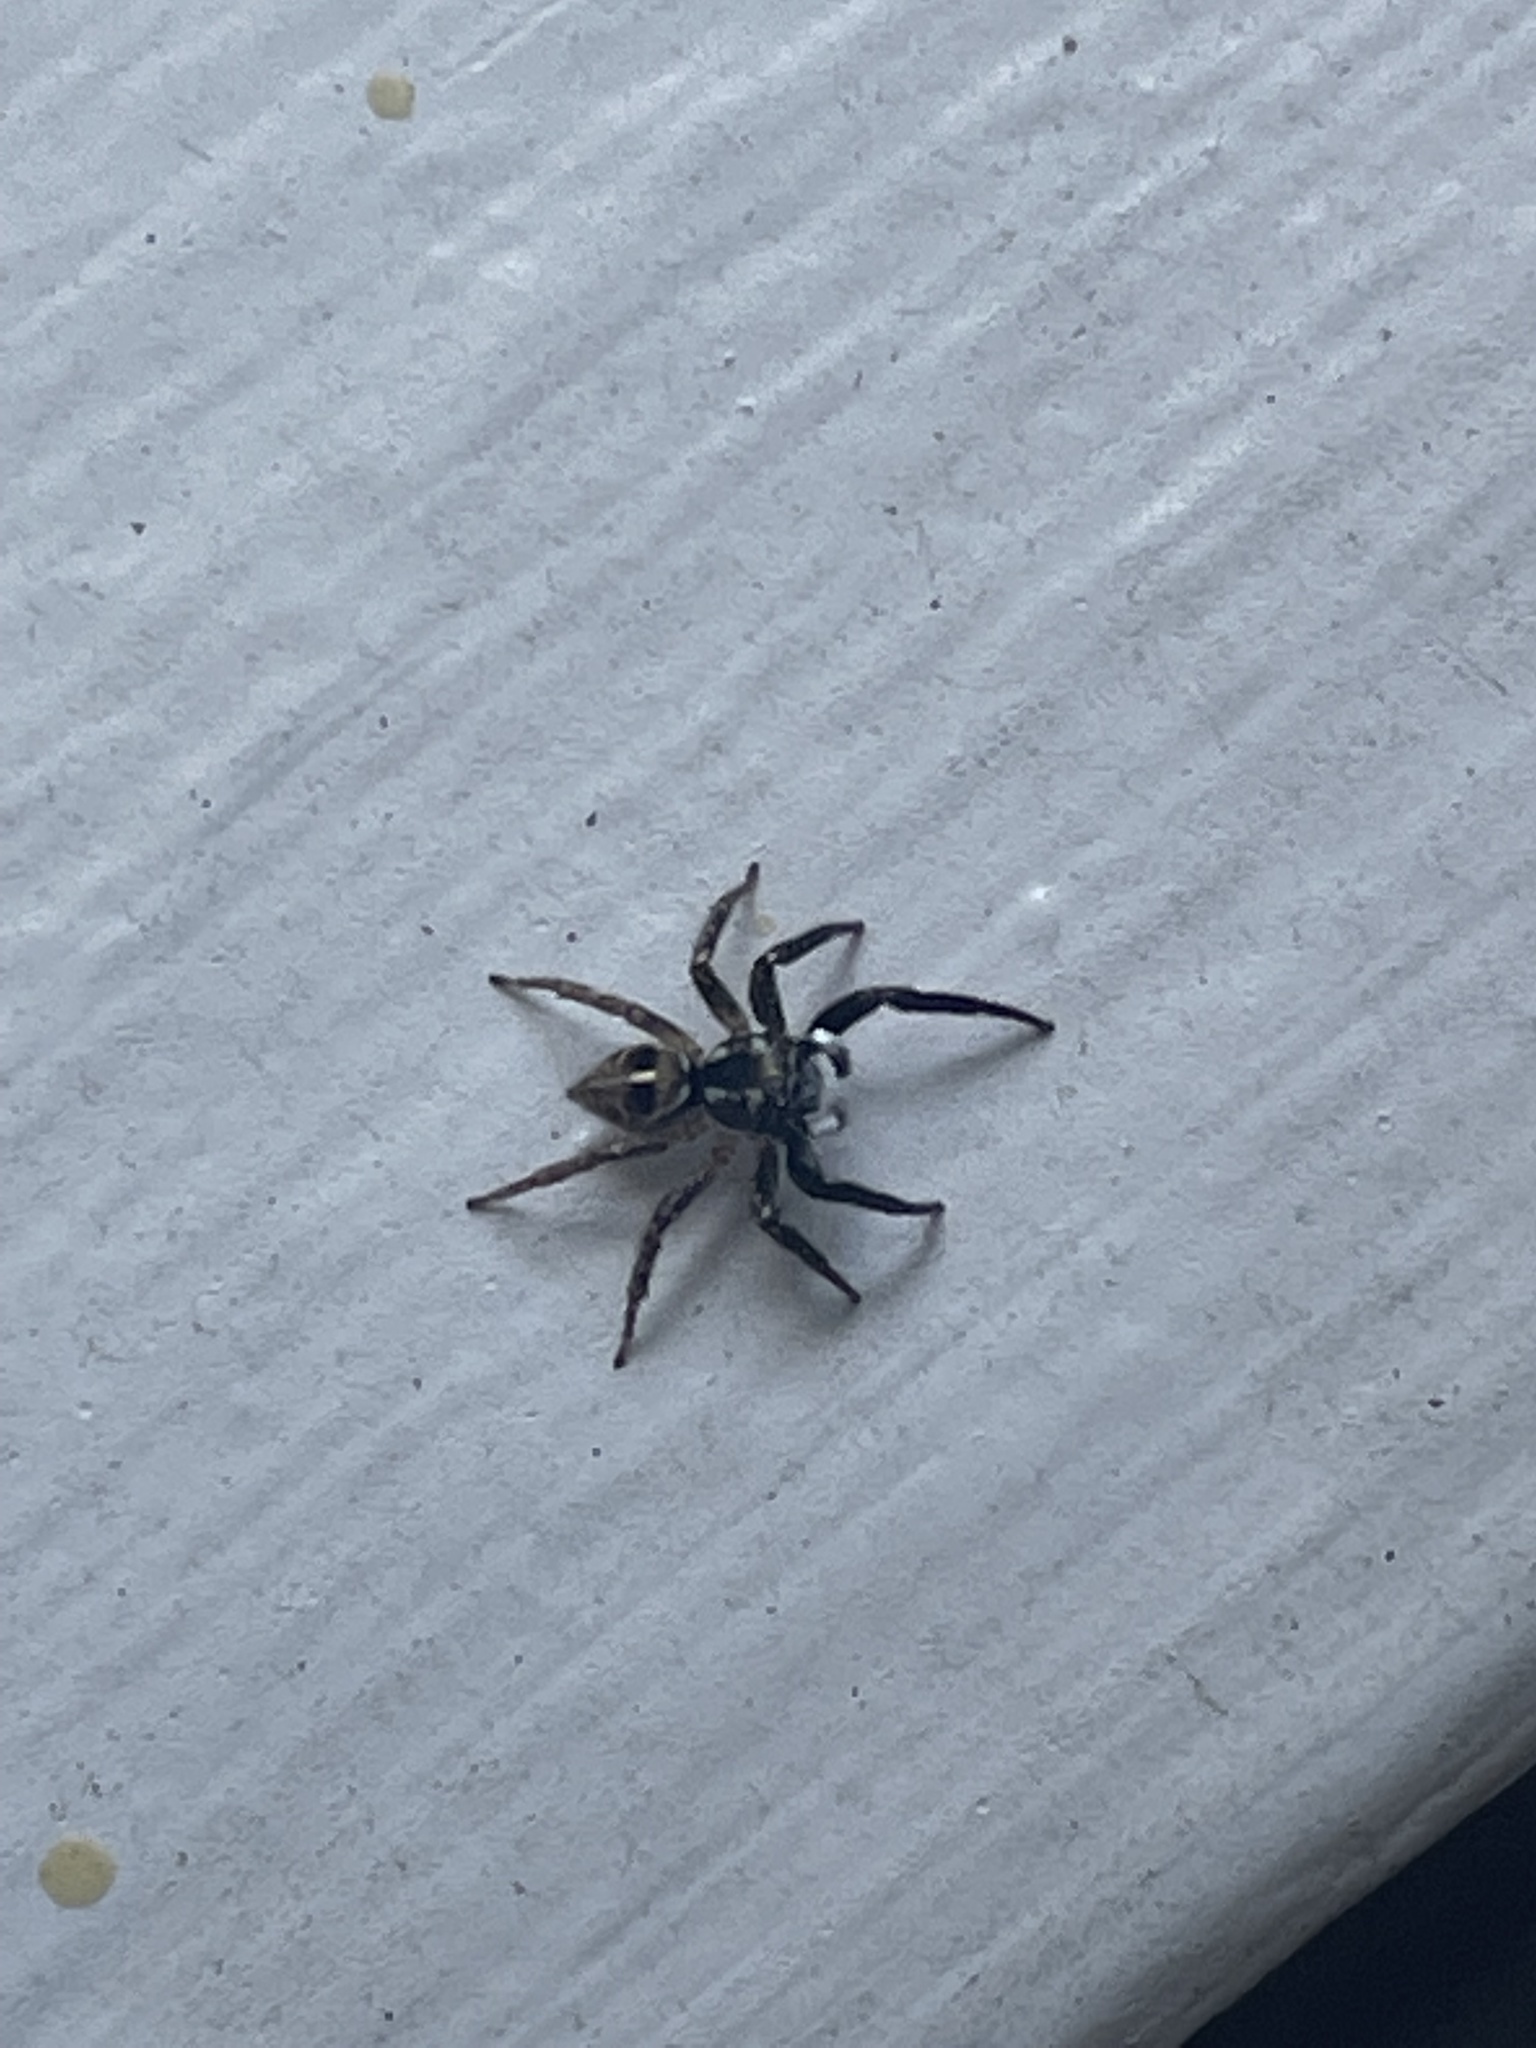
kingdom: Animalia
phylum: Arthropoda
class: Arachnida
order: Araneae
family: Salticidae
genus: Anasaitis
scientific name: Anasaitis canosa
